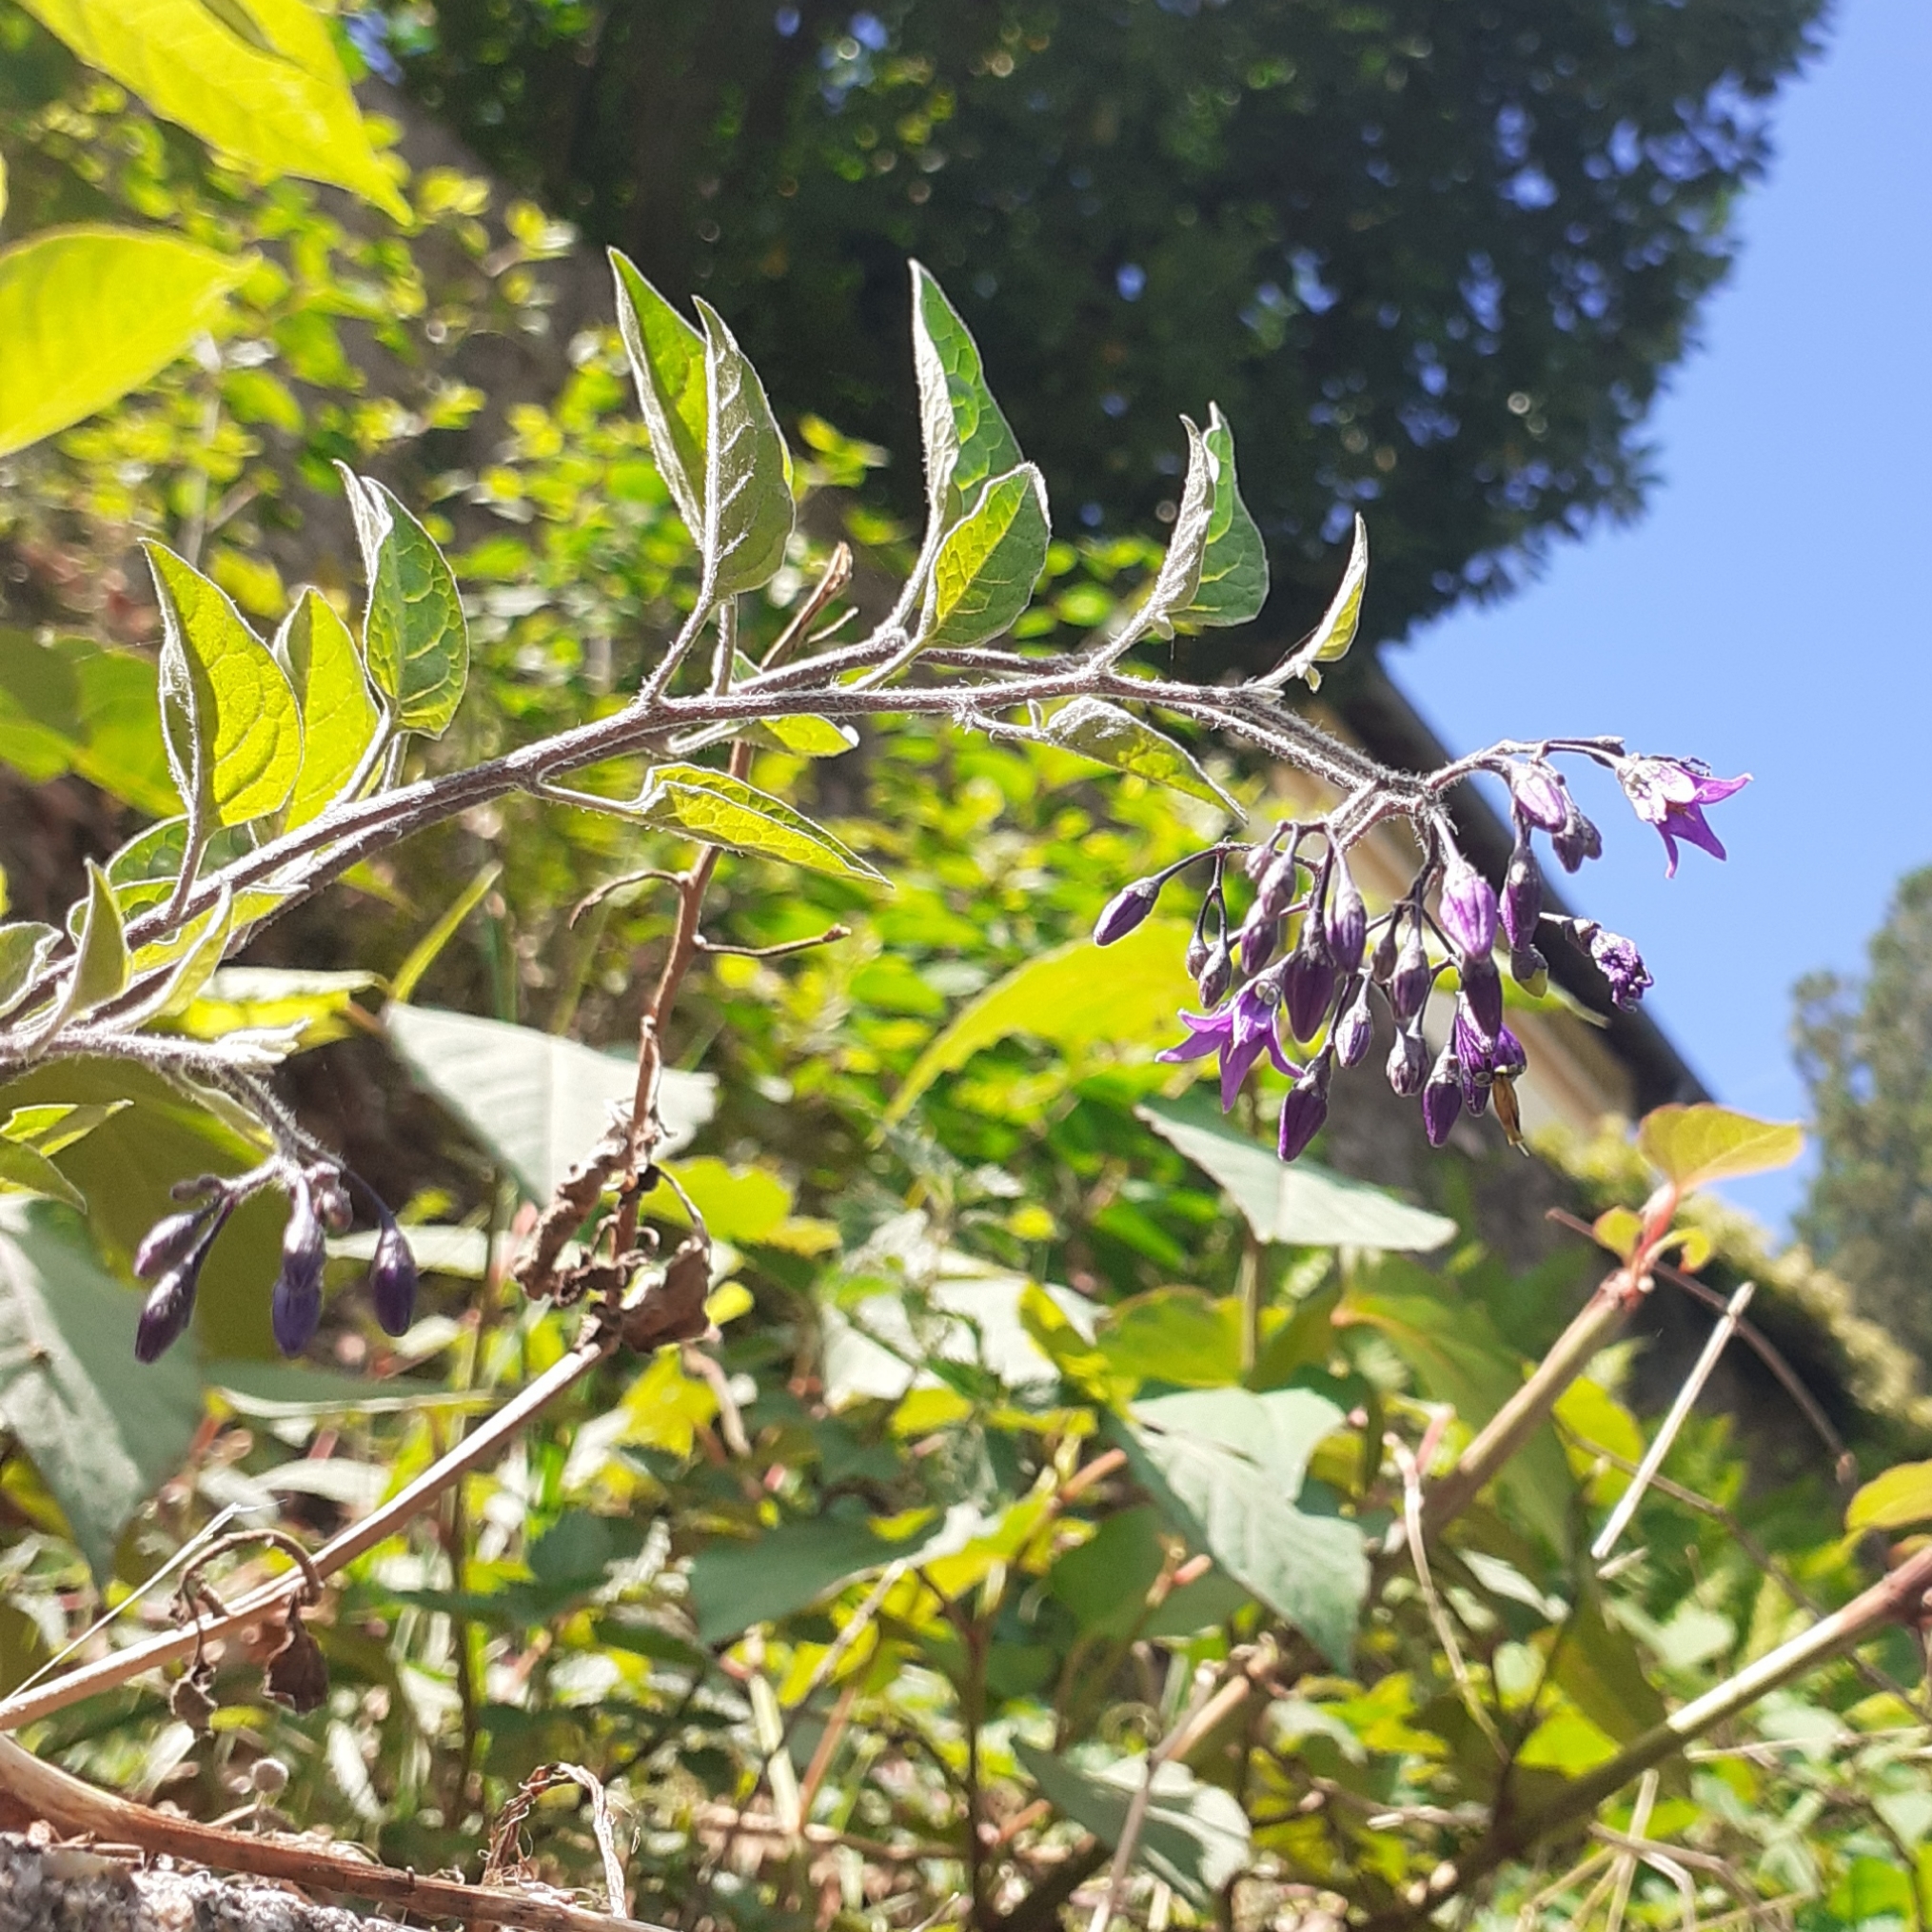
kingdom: Plantae
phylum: Tracheophyta
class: Magnoliopsida
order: Solanales
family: Solanaceae
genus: Solanum
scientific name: Solanum dulcamara
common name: Climbing nightshade
